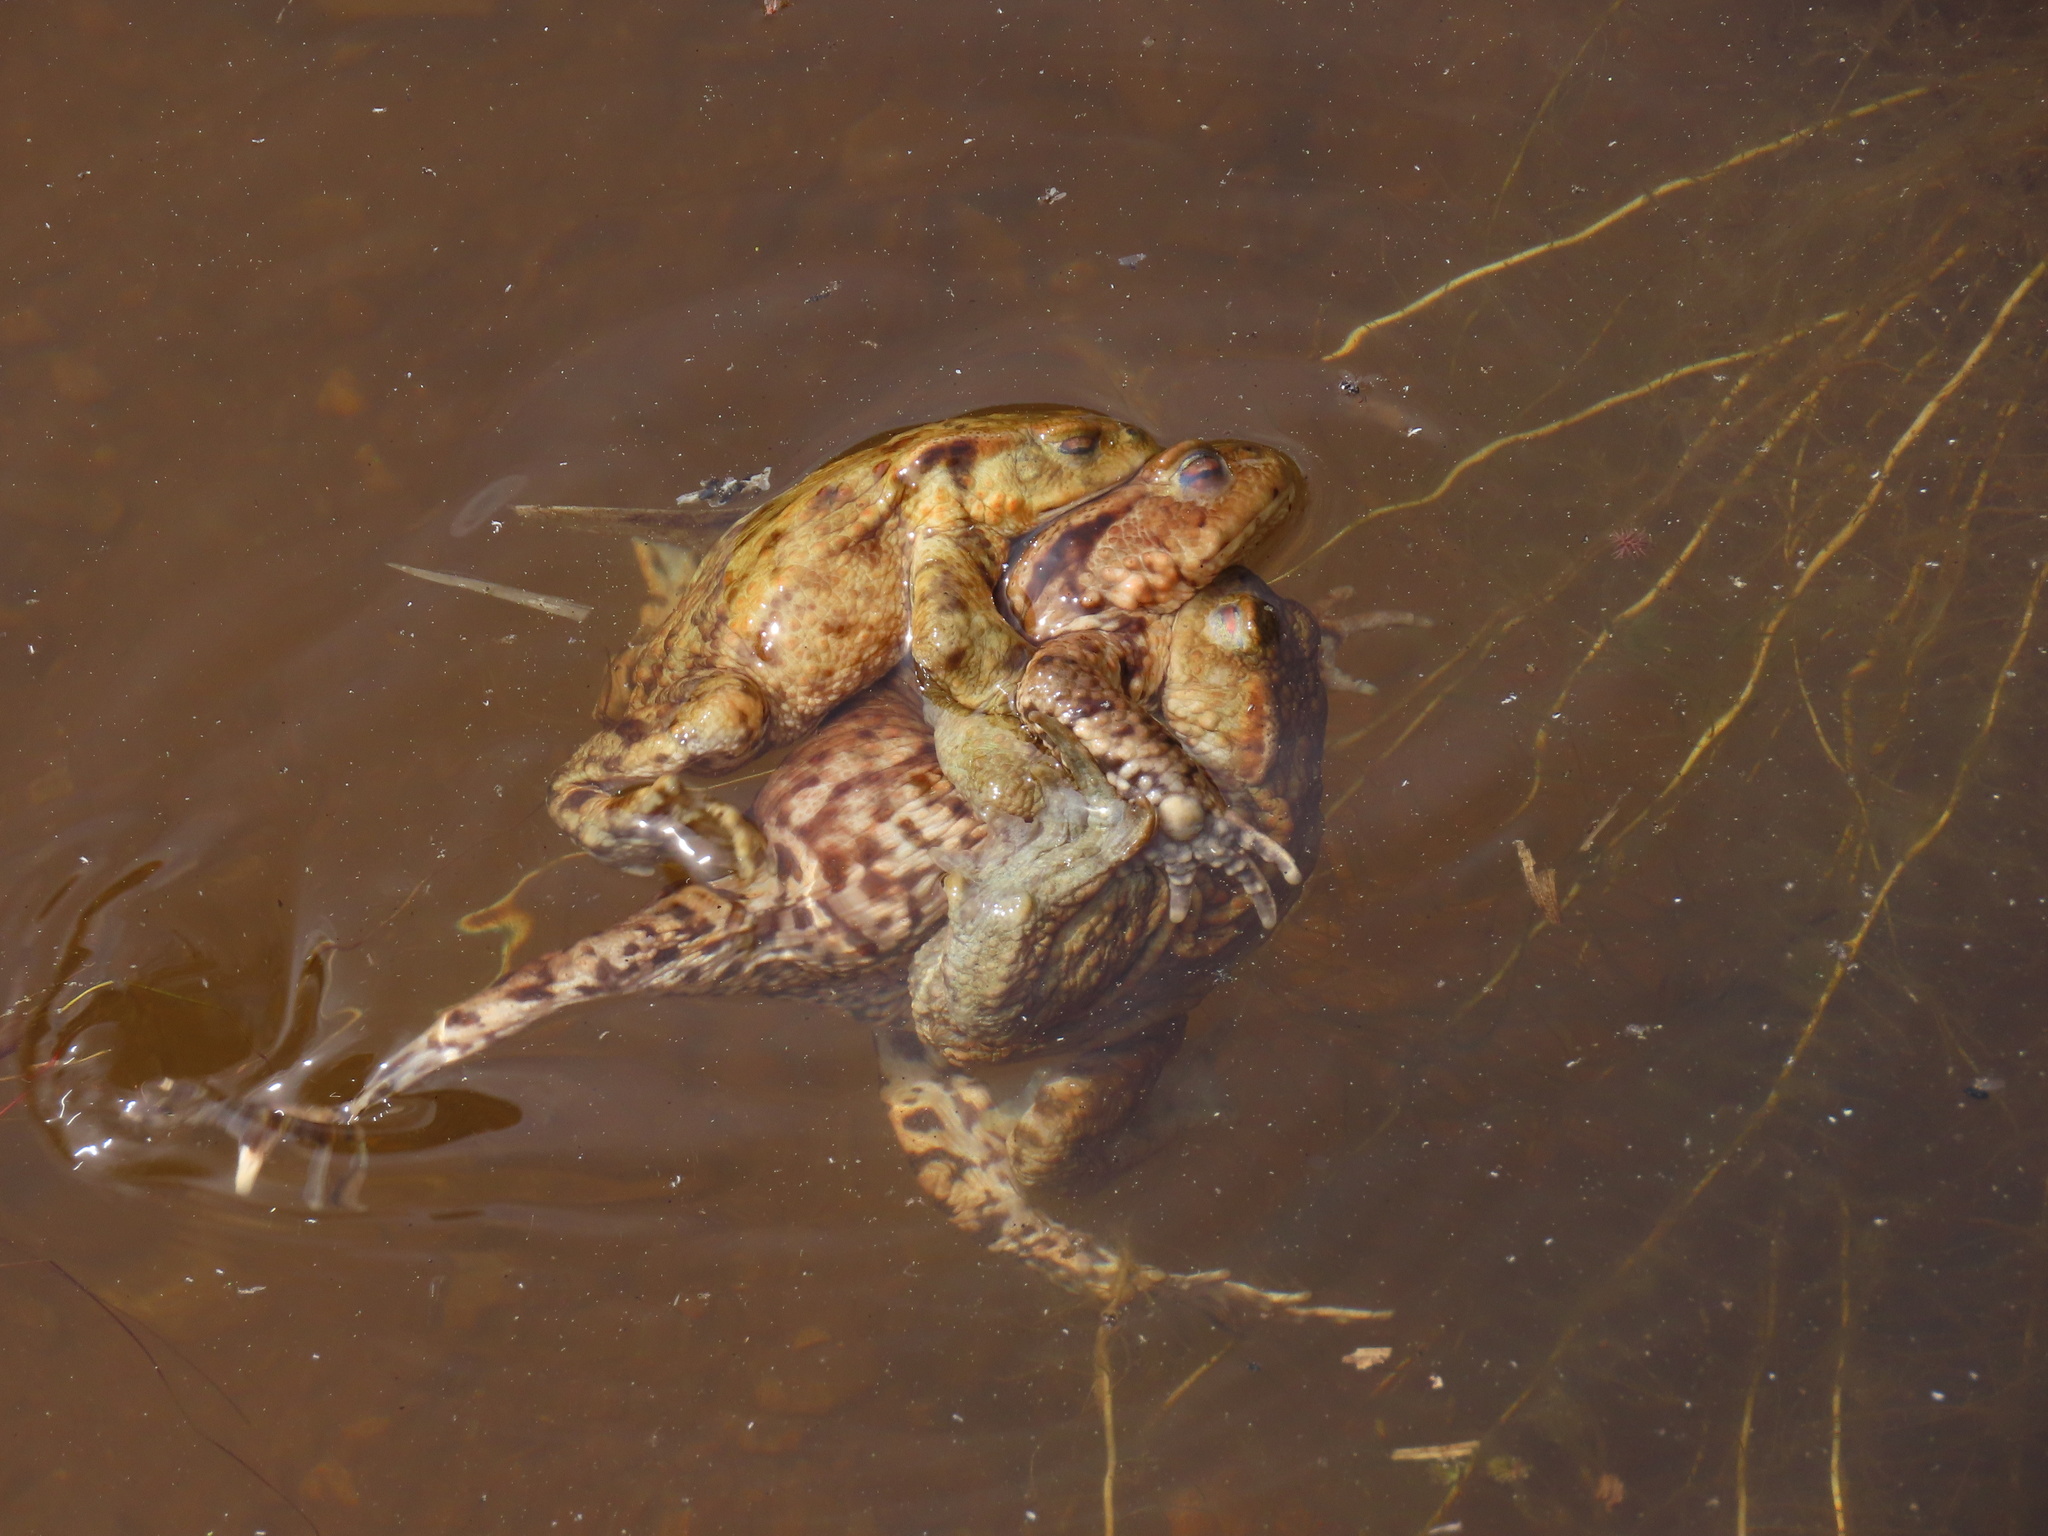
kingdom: Animalia
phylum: Chordata
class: Amphibia
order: Anura
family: Bufonidae
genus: Bufo
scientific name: Bufo bufo
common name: Common toad
